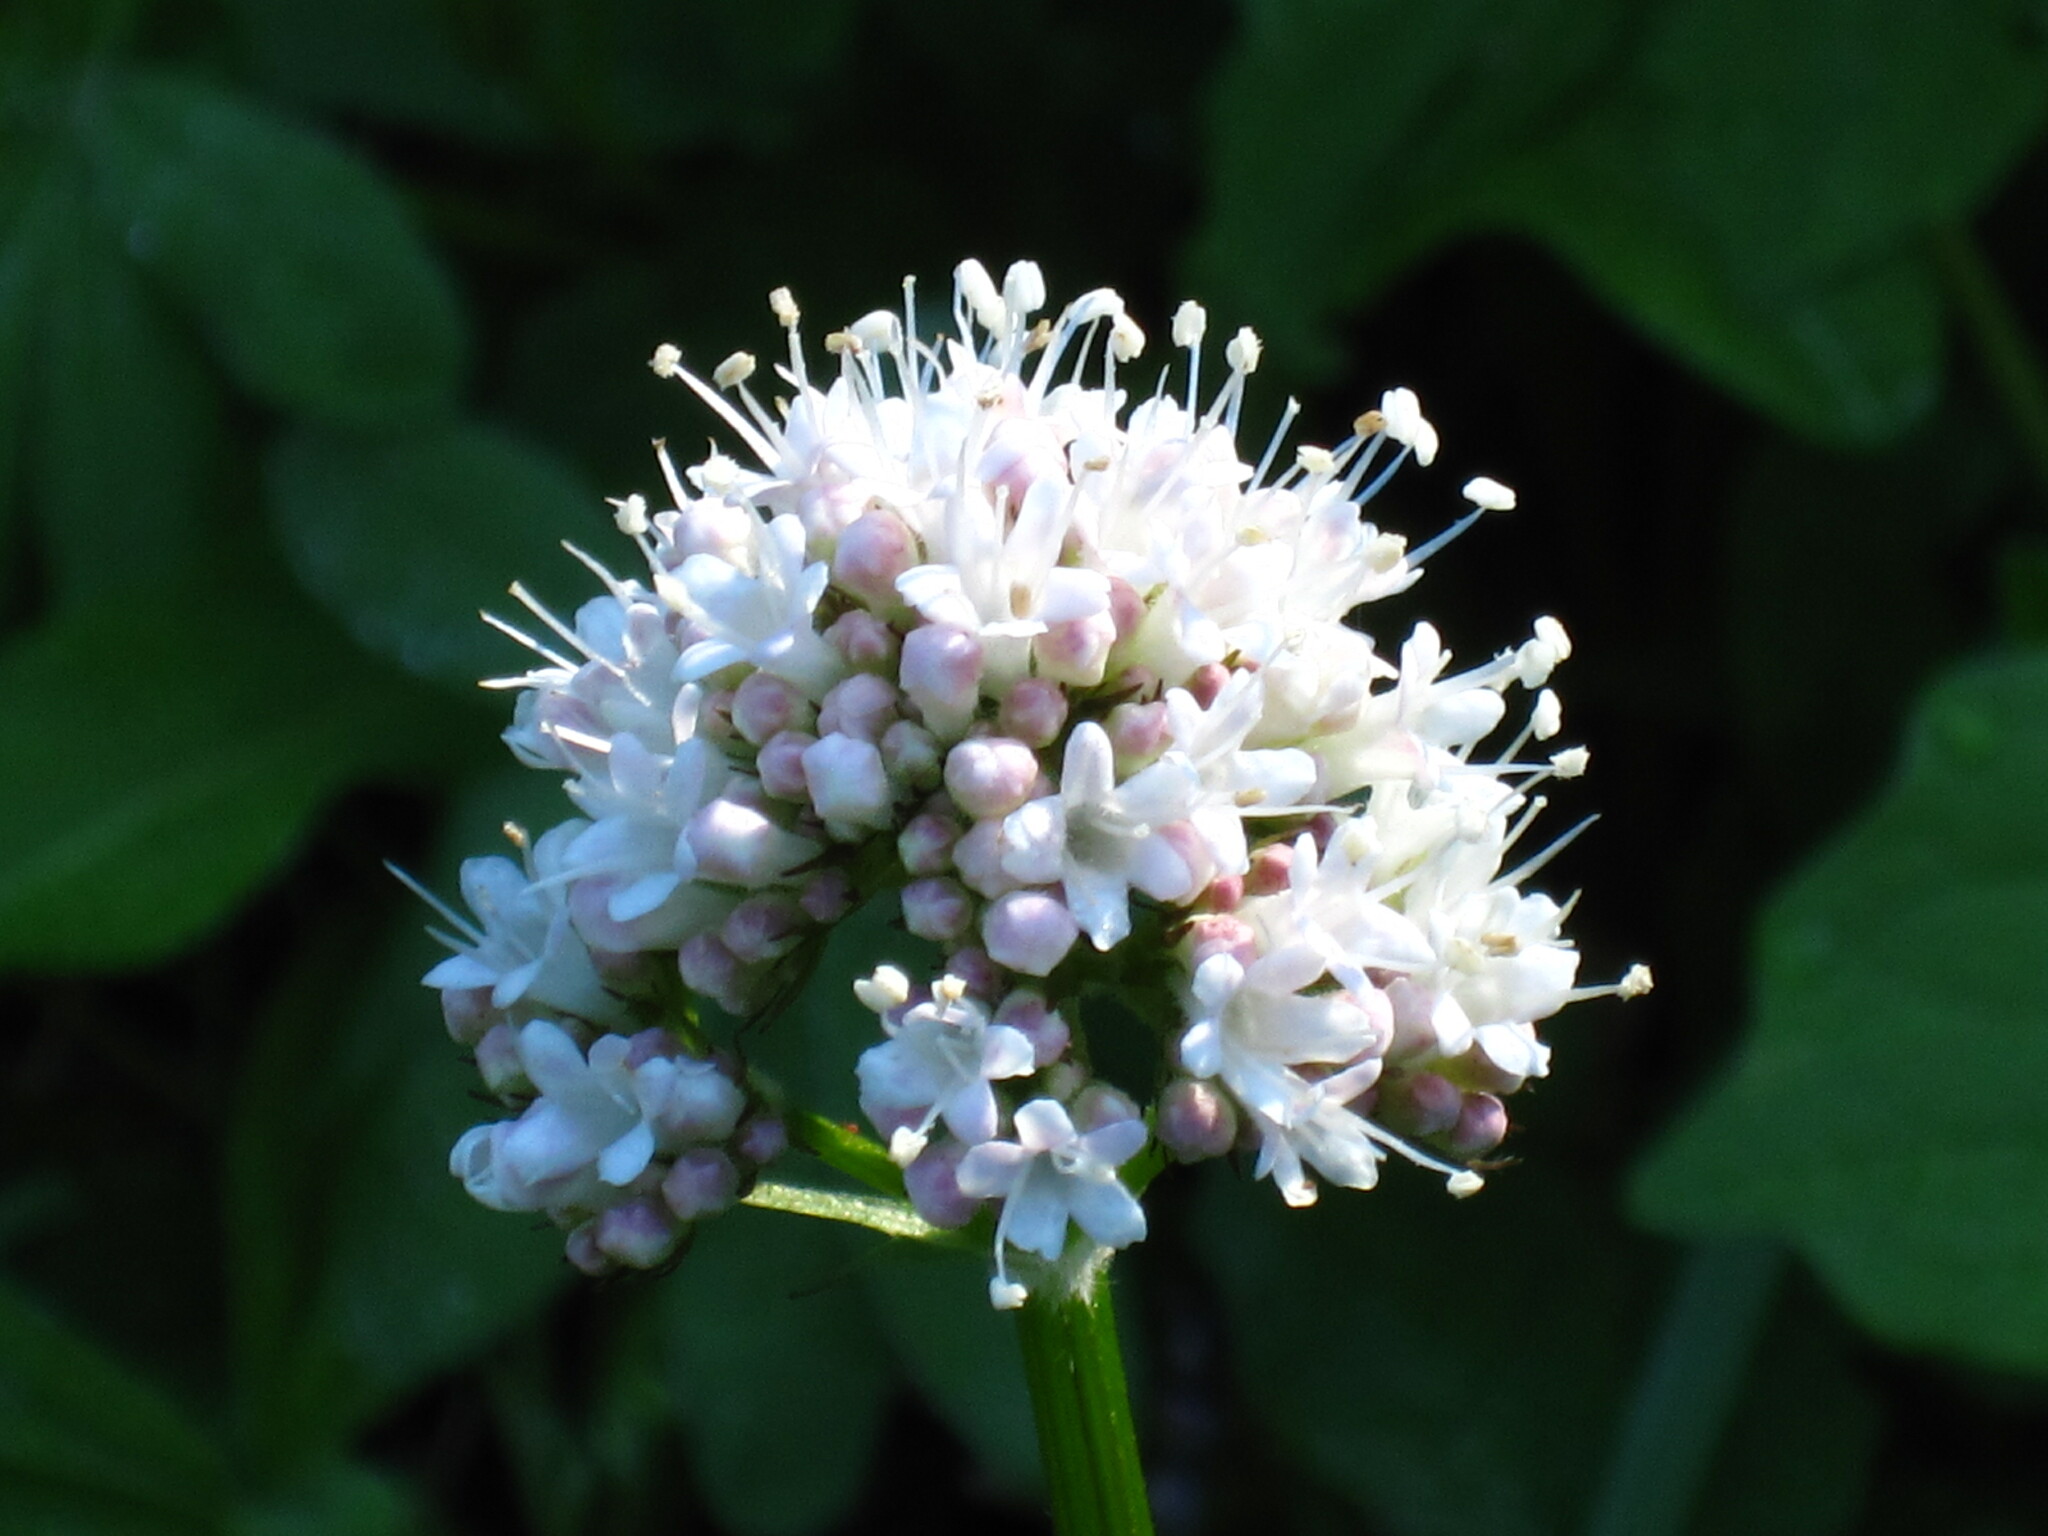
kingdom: Plantae
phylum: Tracheophyta
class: Magnoliopsida
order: Dipsacales
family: Caprifoliaceae
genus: Valeriana
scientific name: Valeriana sitchensis
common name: Pacific valerian
